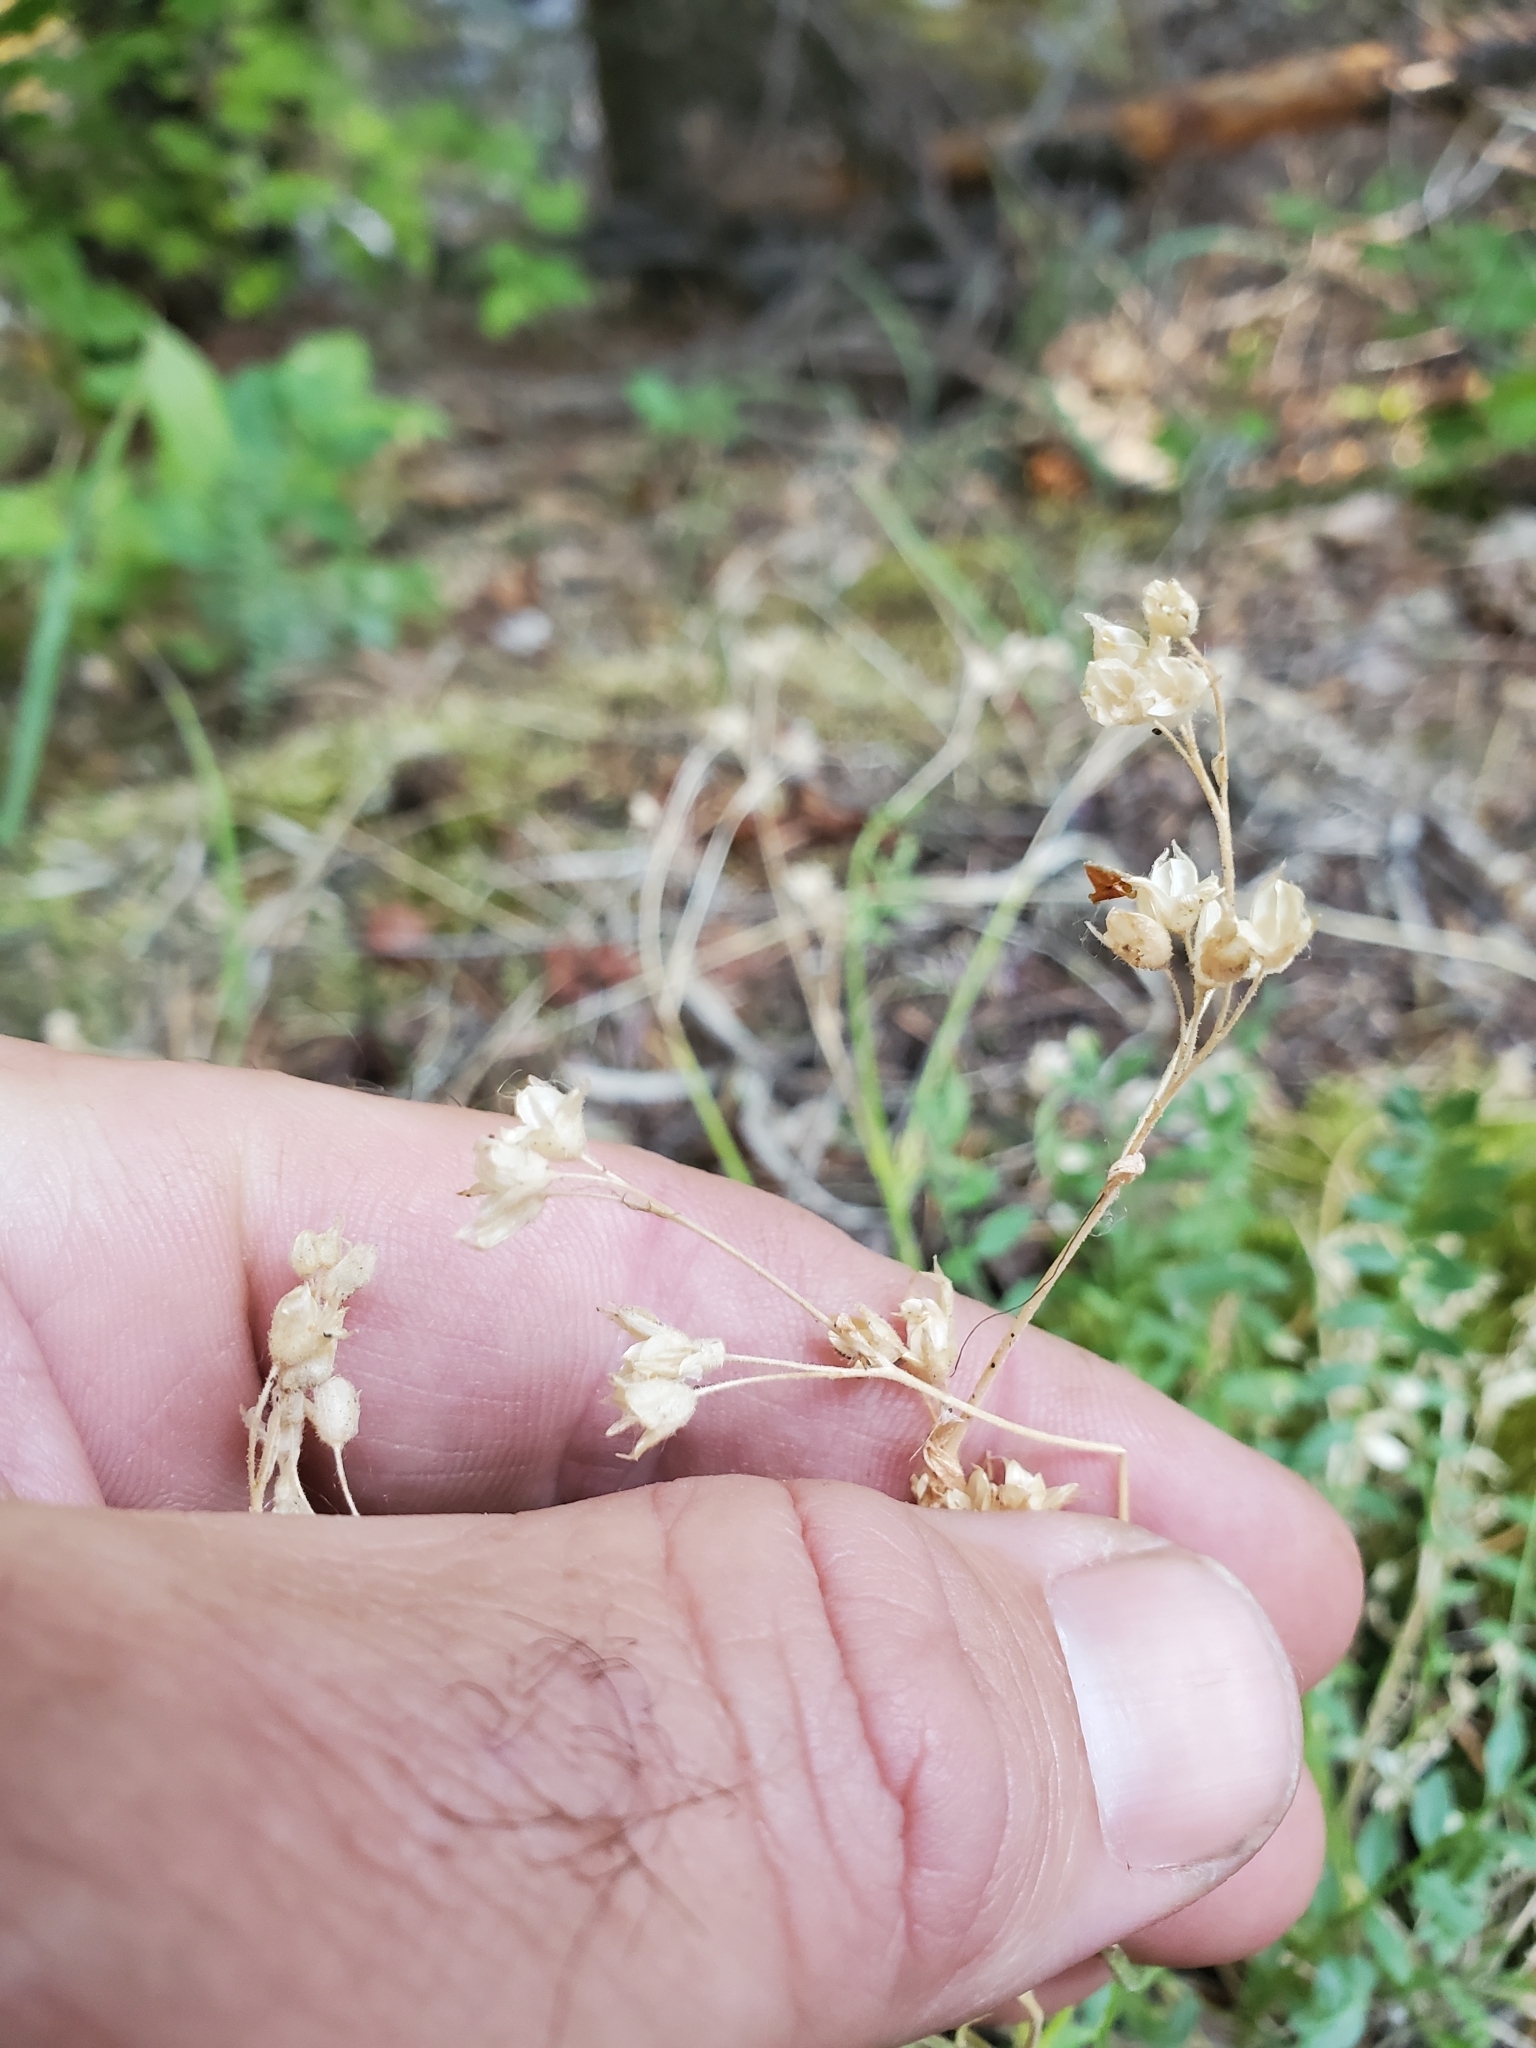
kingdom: Plantae
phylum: Tracheophyta
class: Magnoliopsida
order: Ericales
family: Polemoniaceae
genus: Polemonium
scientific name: Polemonium pulcherrimum
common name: Short jacob's-ladder
